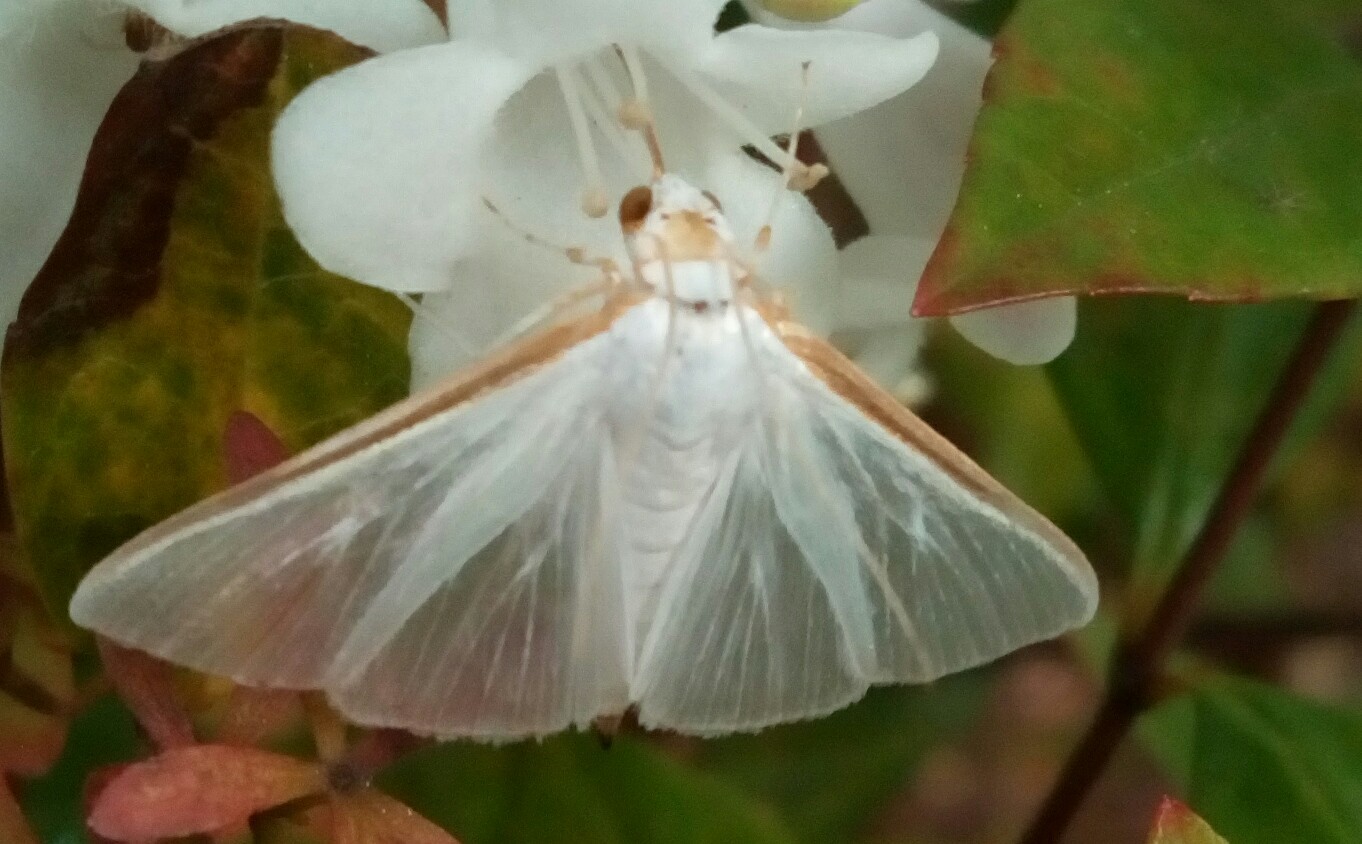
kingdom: Animalia
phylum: Arthropoda
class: Insecta
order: Lepidoptera
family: Crambidae
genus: Diaphania
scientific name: Diaphania costata
